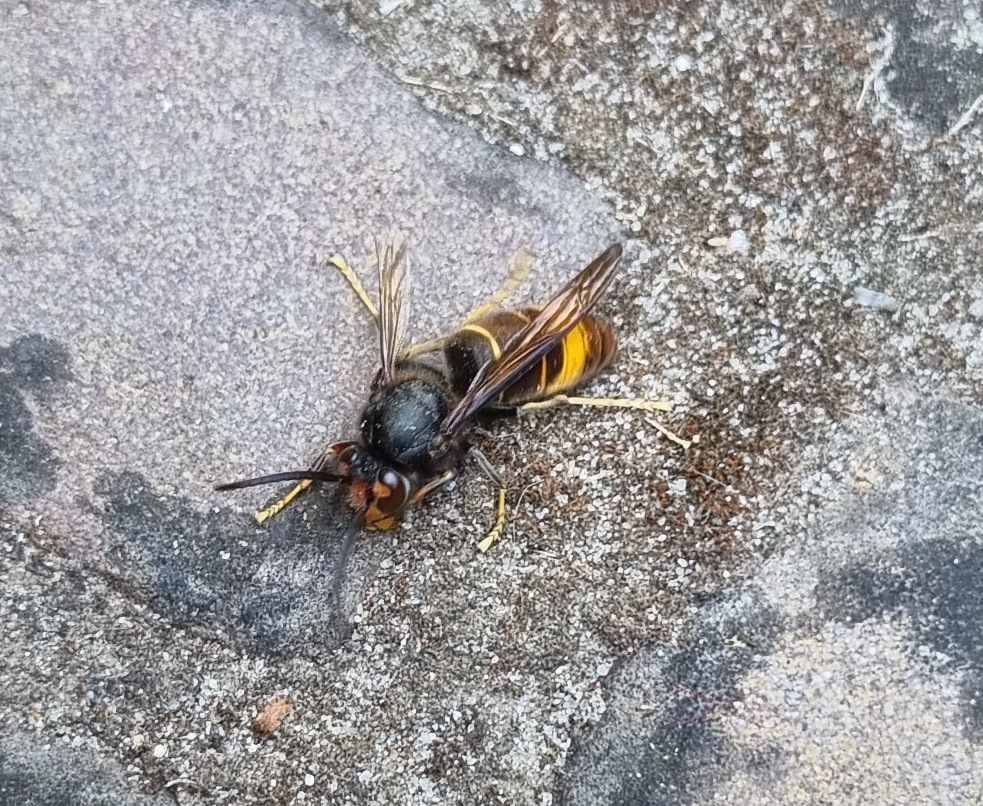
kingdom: Animalia
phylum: Arthropoda
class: Insecta
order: Hymenoptera
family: Vespidae
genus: Vespa
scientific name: Vespa velutina
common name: Asian hornet
